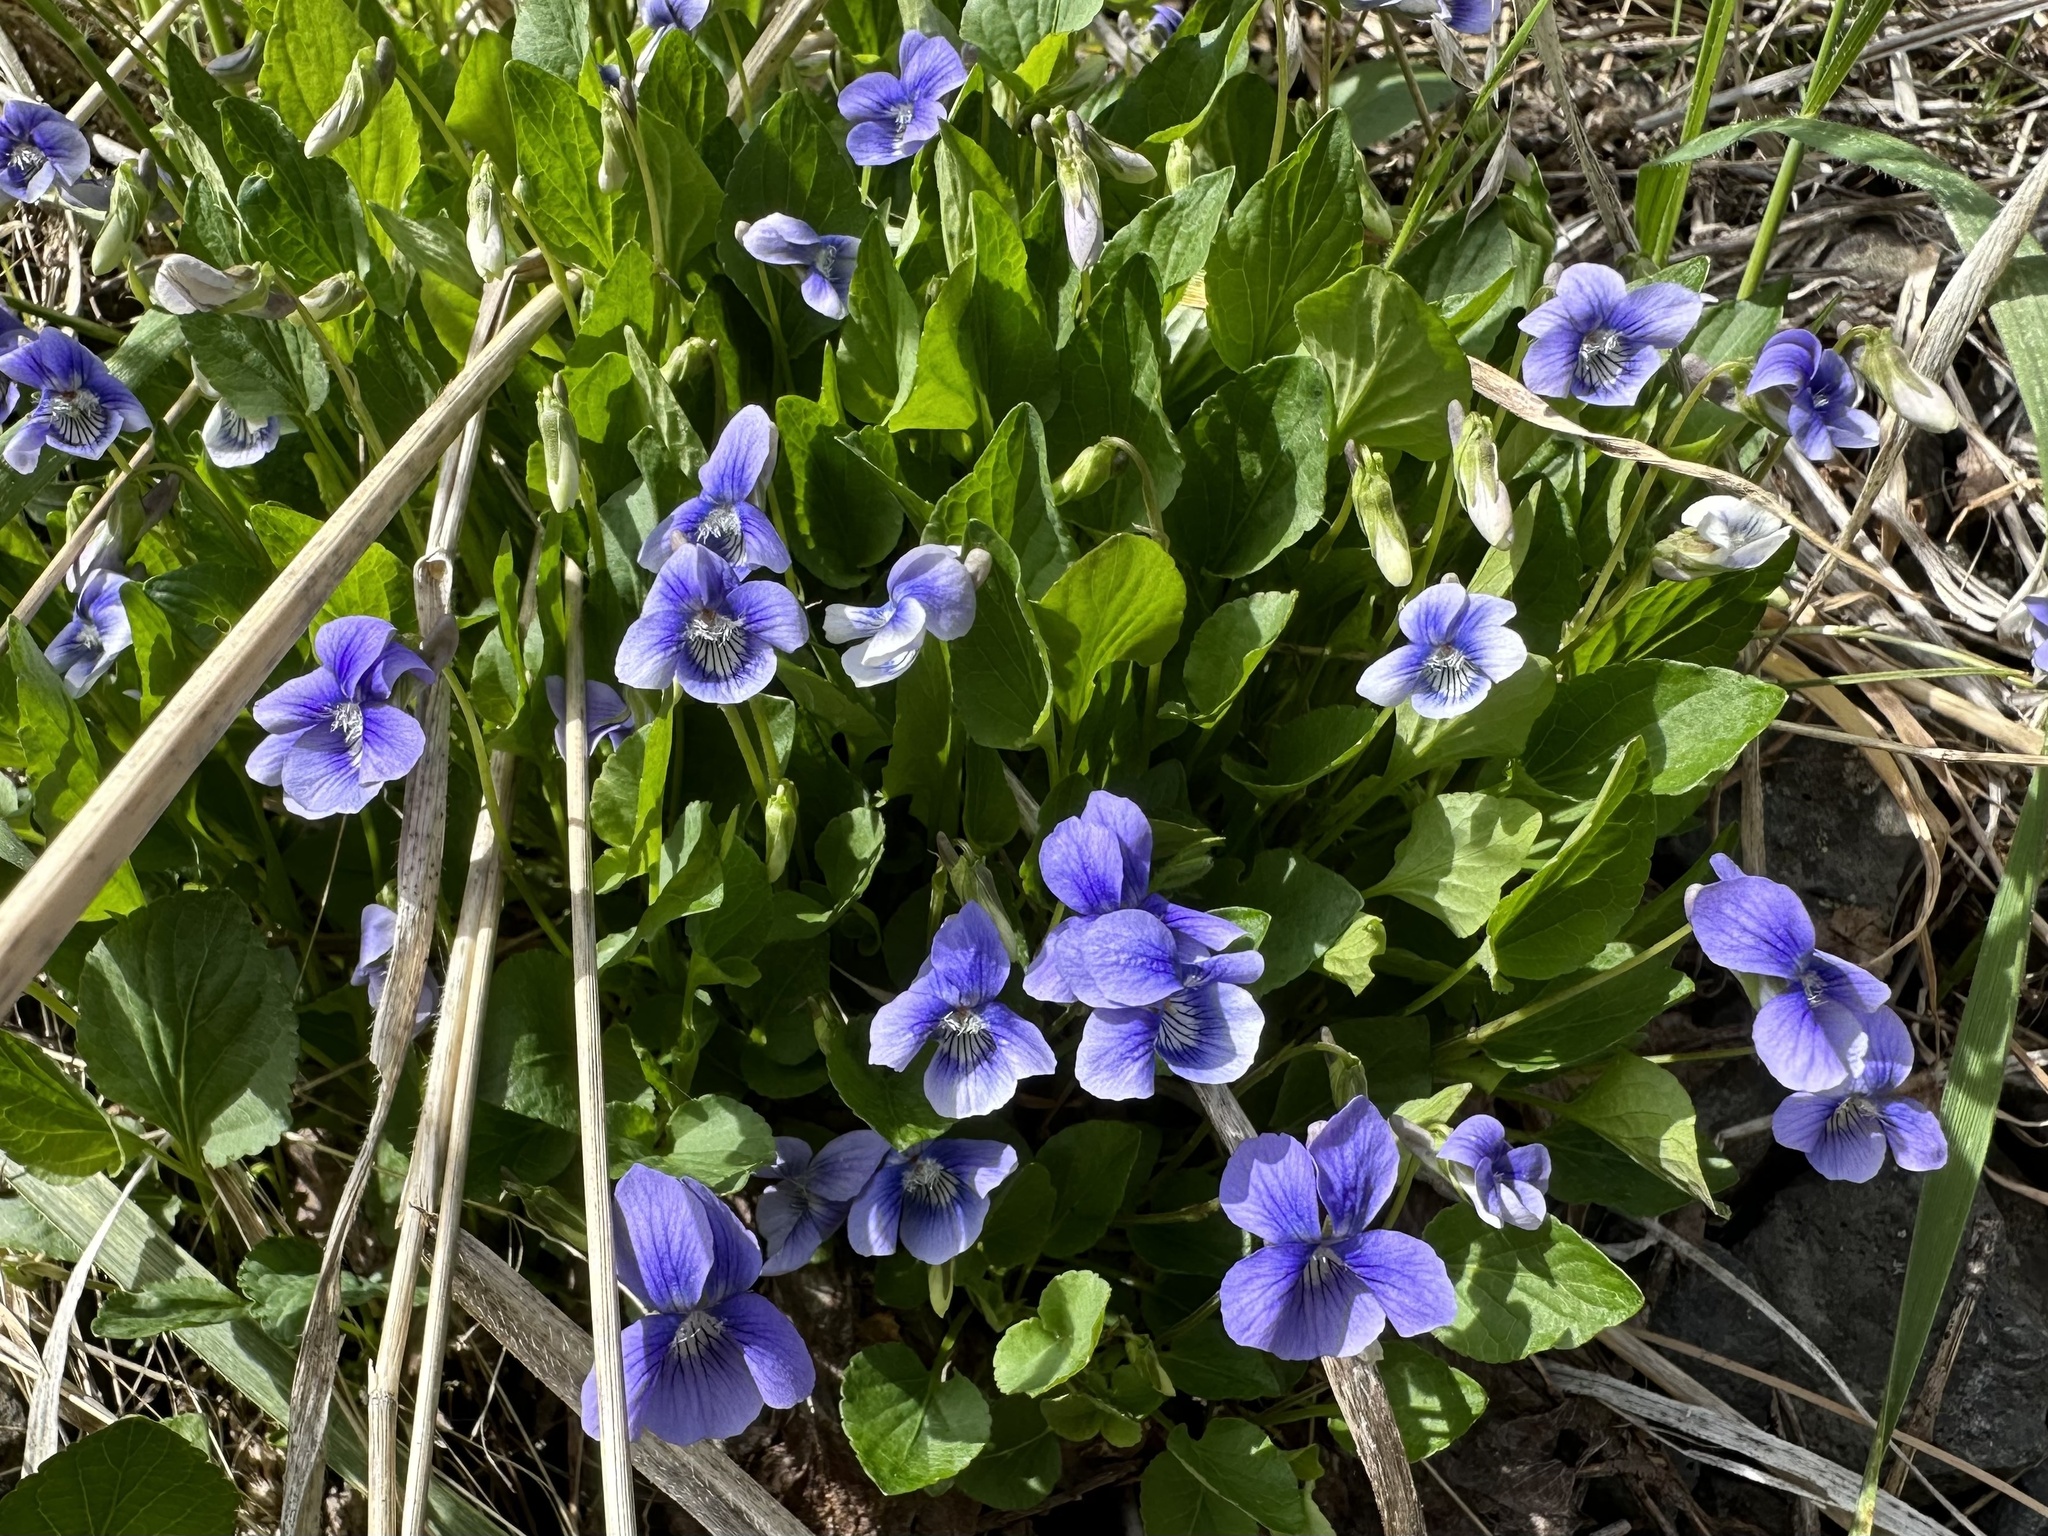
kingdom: Plantae
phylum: Tracheophyta
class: Magnoliopsida
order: Malpighiales
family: Violaceae
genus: Viola
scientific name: Viola adunca
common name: Sand violet
